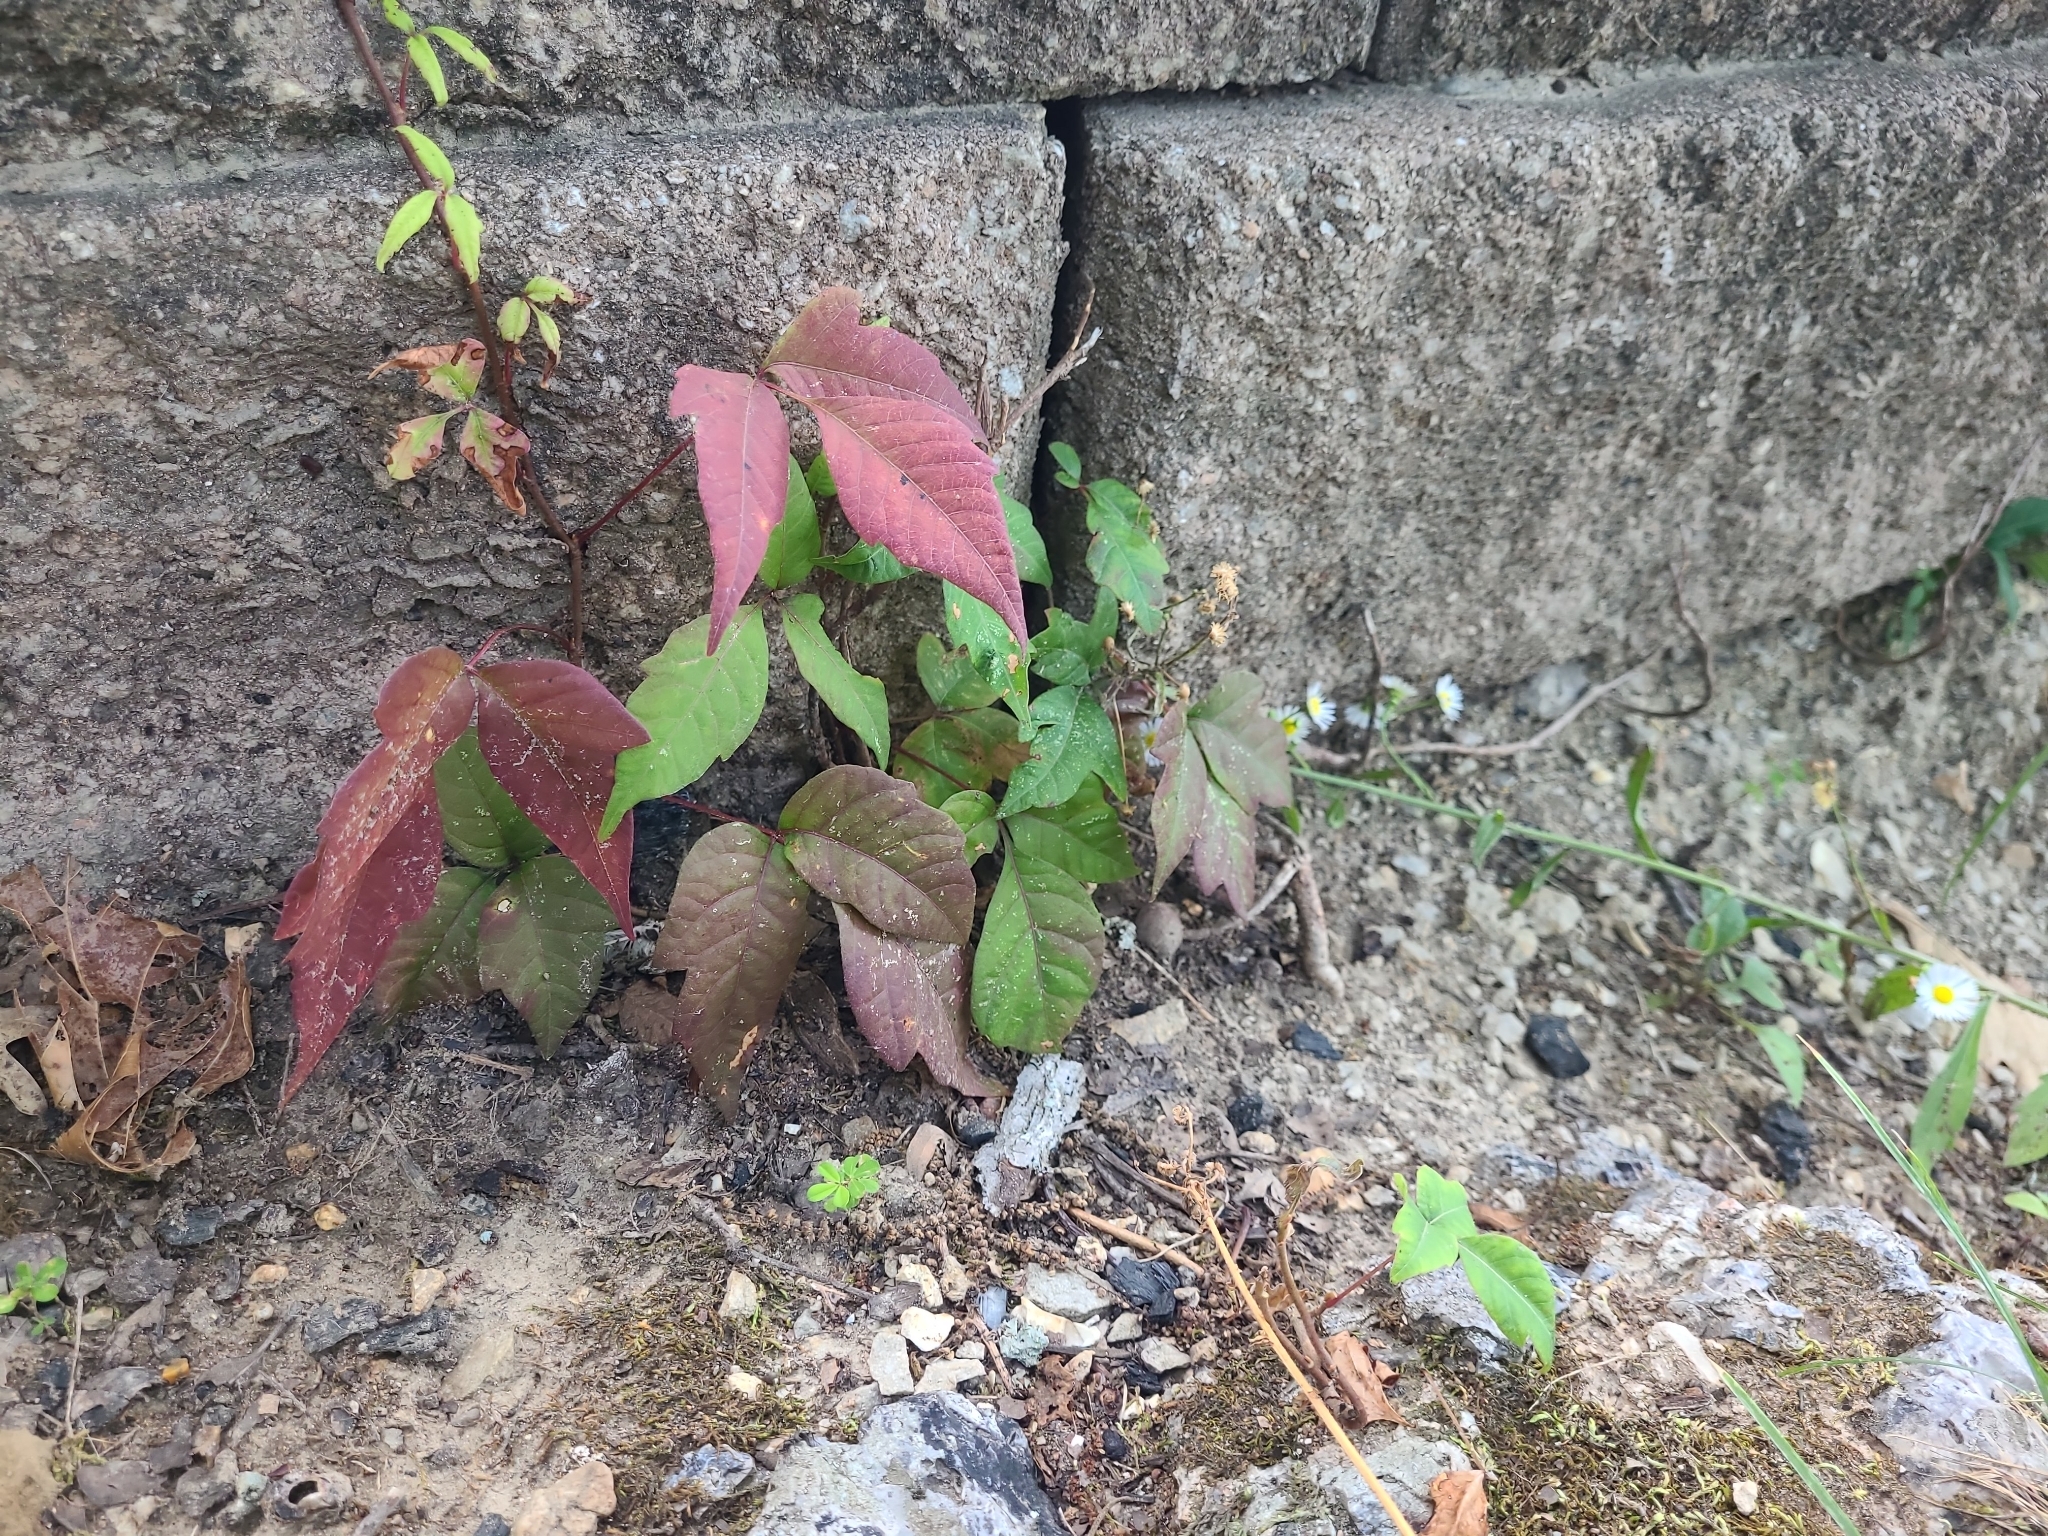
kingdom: Plantae
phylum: Tracheophyta
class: Magnoliopsida
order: Sapindales
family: Anacardiaceae
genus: Toxicodendron
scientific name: Toxicodendron radicans
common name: Poison ivy
